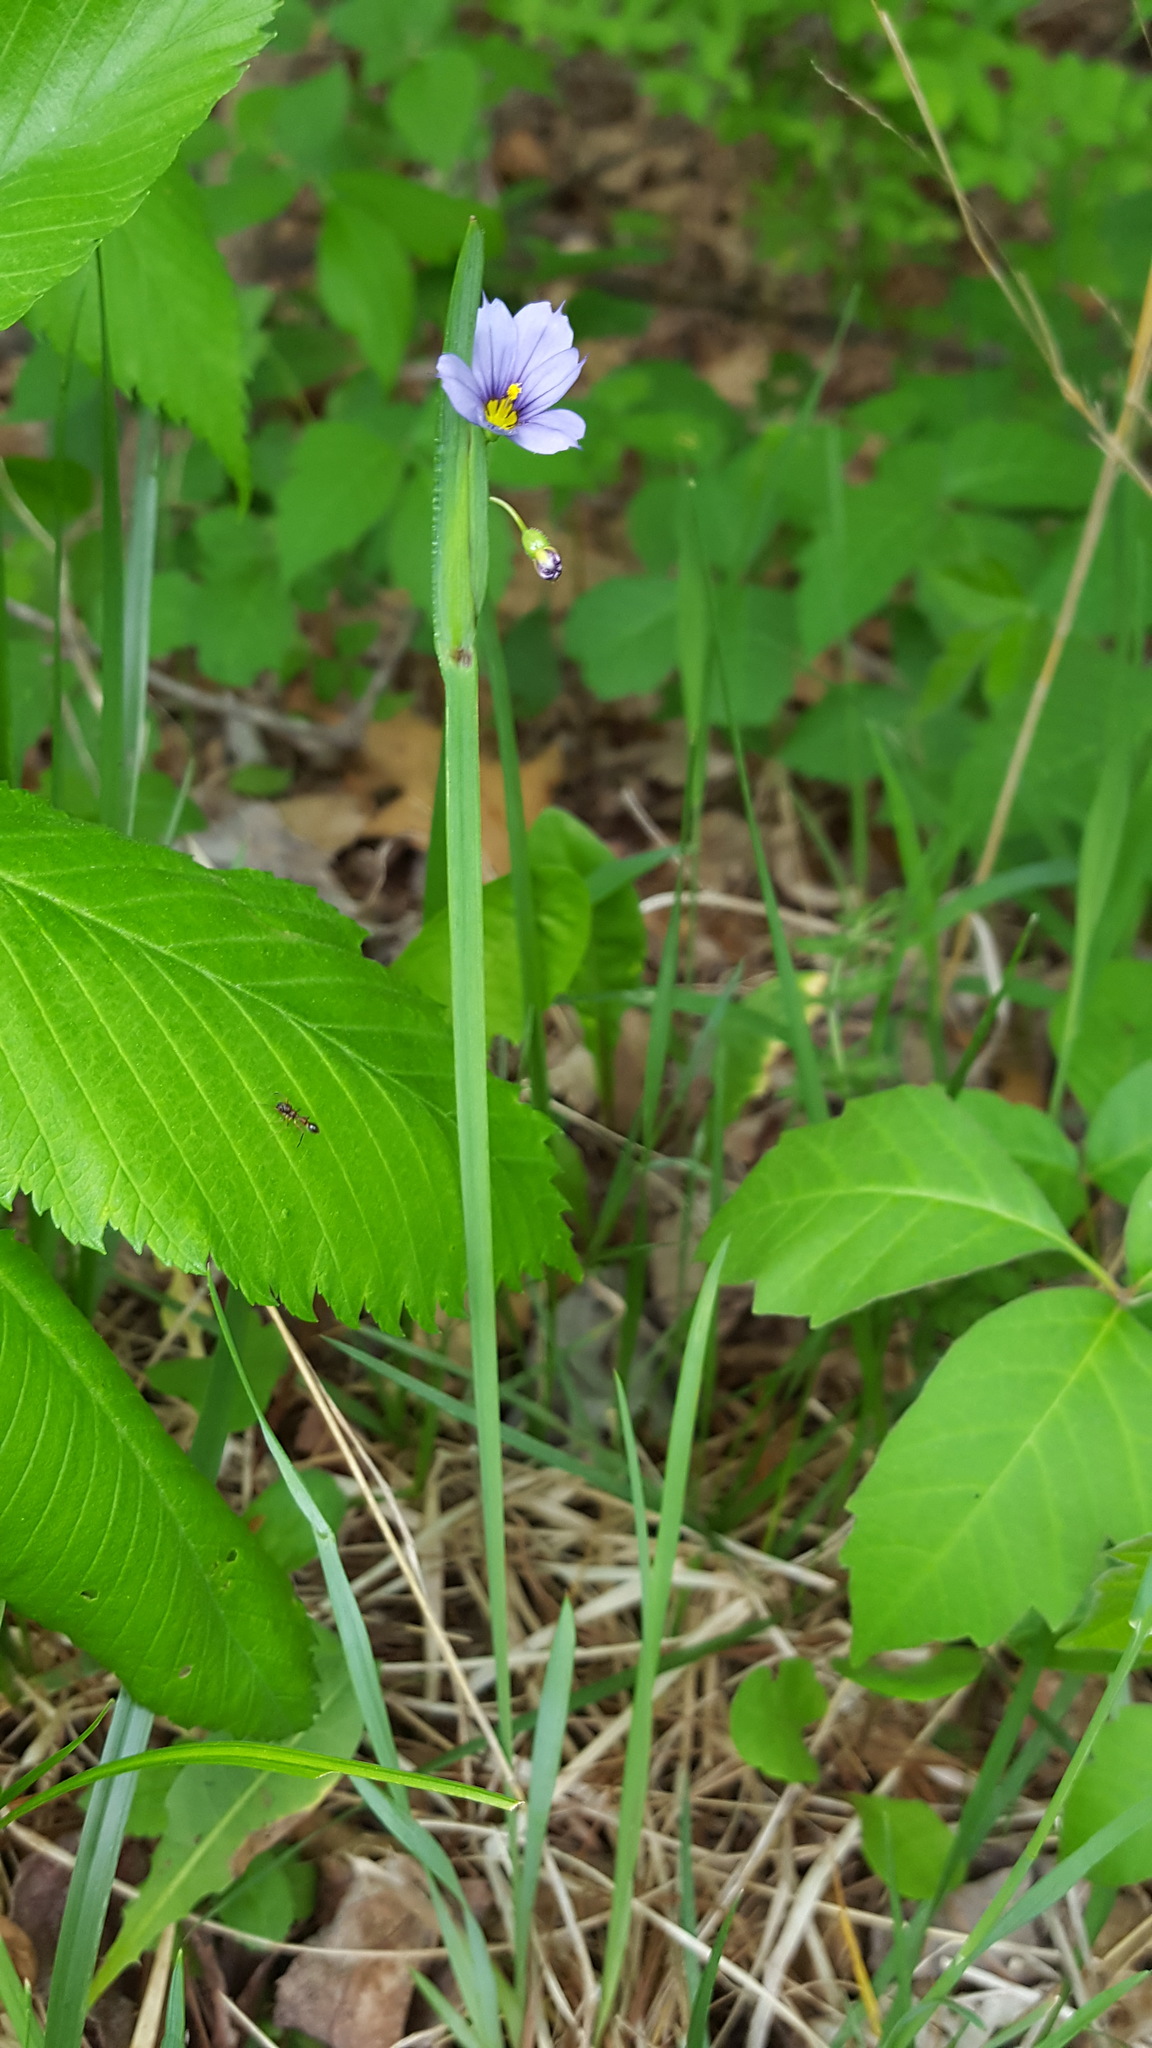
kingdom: Plantae
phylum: Tracheophyta
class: Liliopsida
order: Asparagales
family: Iridaceae
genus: Sisyrinchium
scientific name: Sisyrinchium montanum
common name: American blue-eyed-grass
